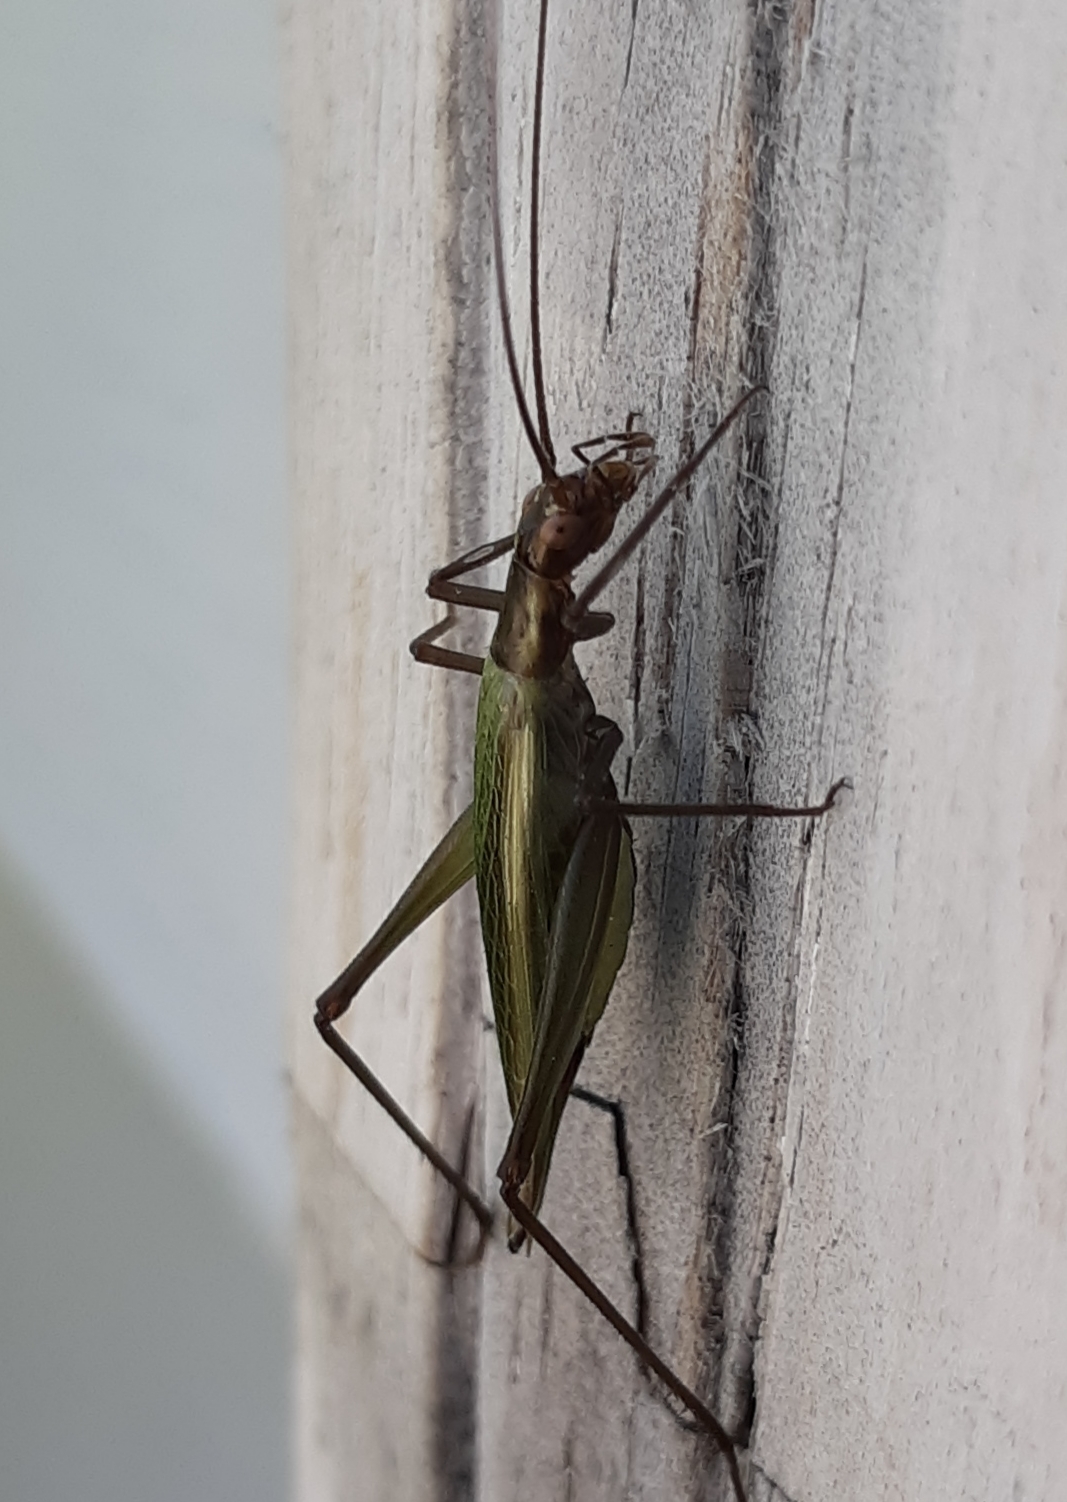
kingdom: Animalia
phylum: Arthropoda
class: Insecta
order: Orthoptera
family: Gryllidae
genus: Oecanthus
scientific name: Oecanthus pini
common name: Pine tree cricket
